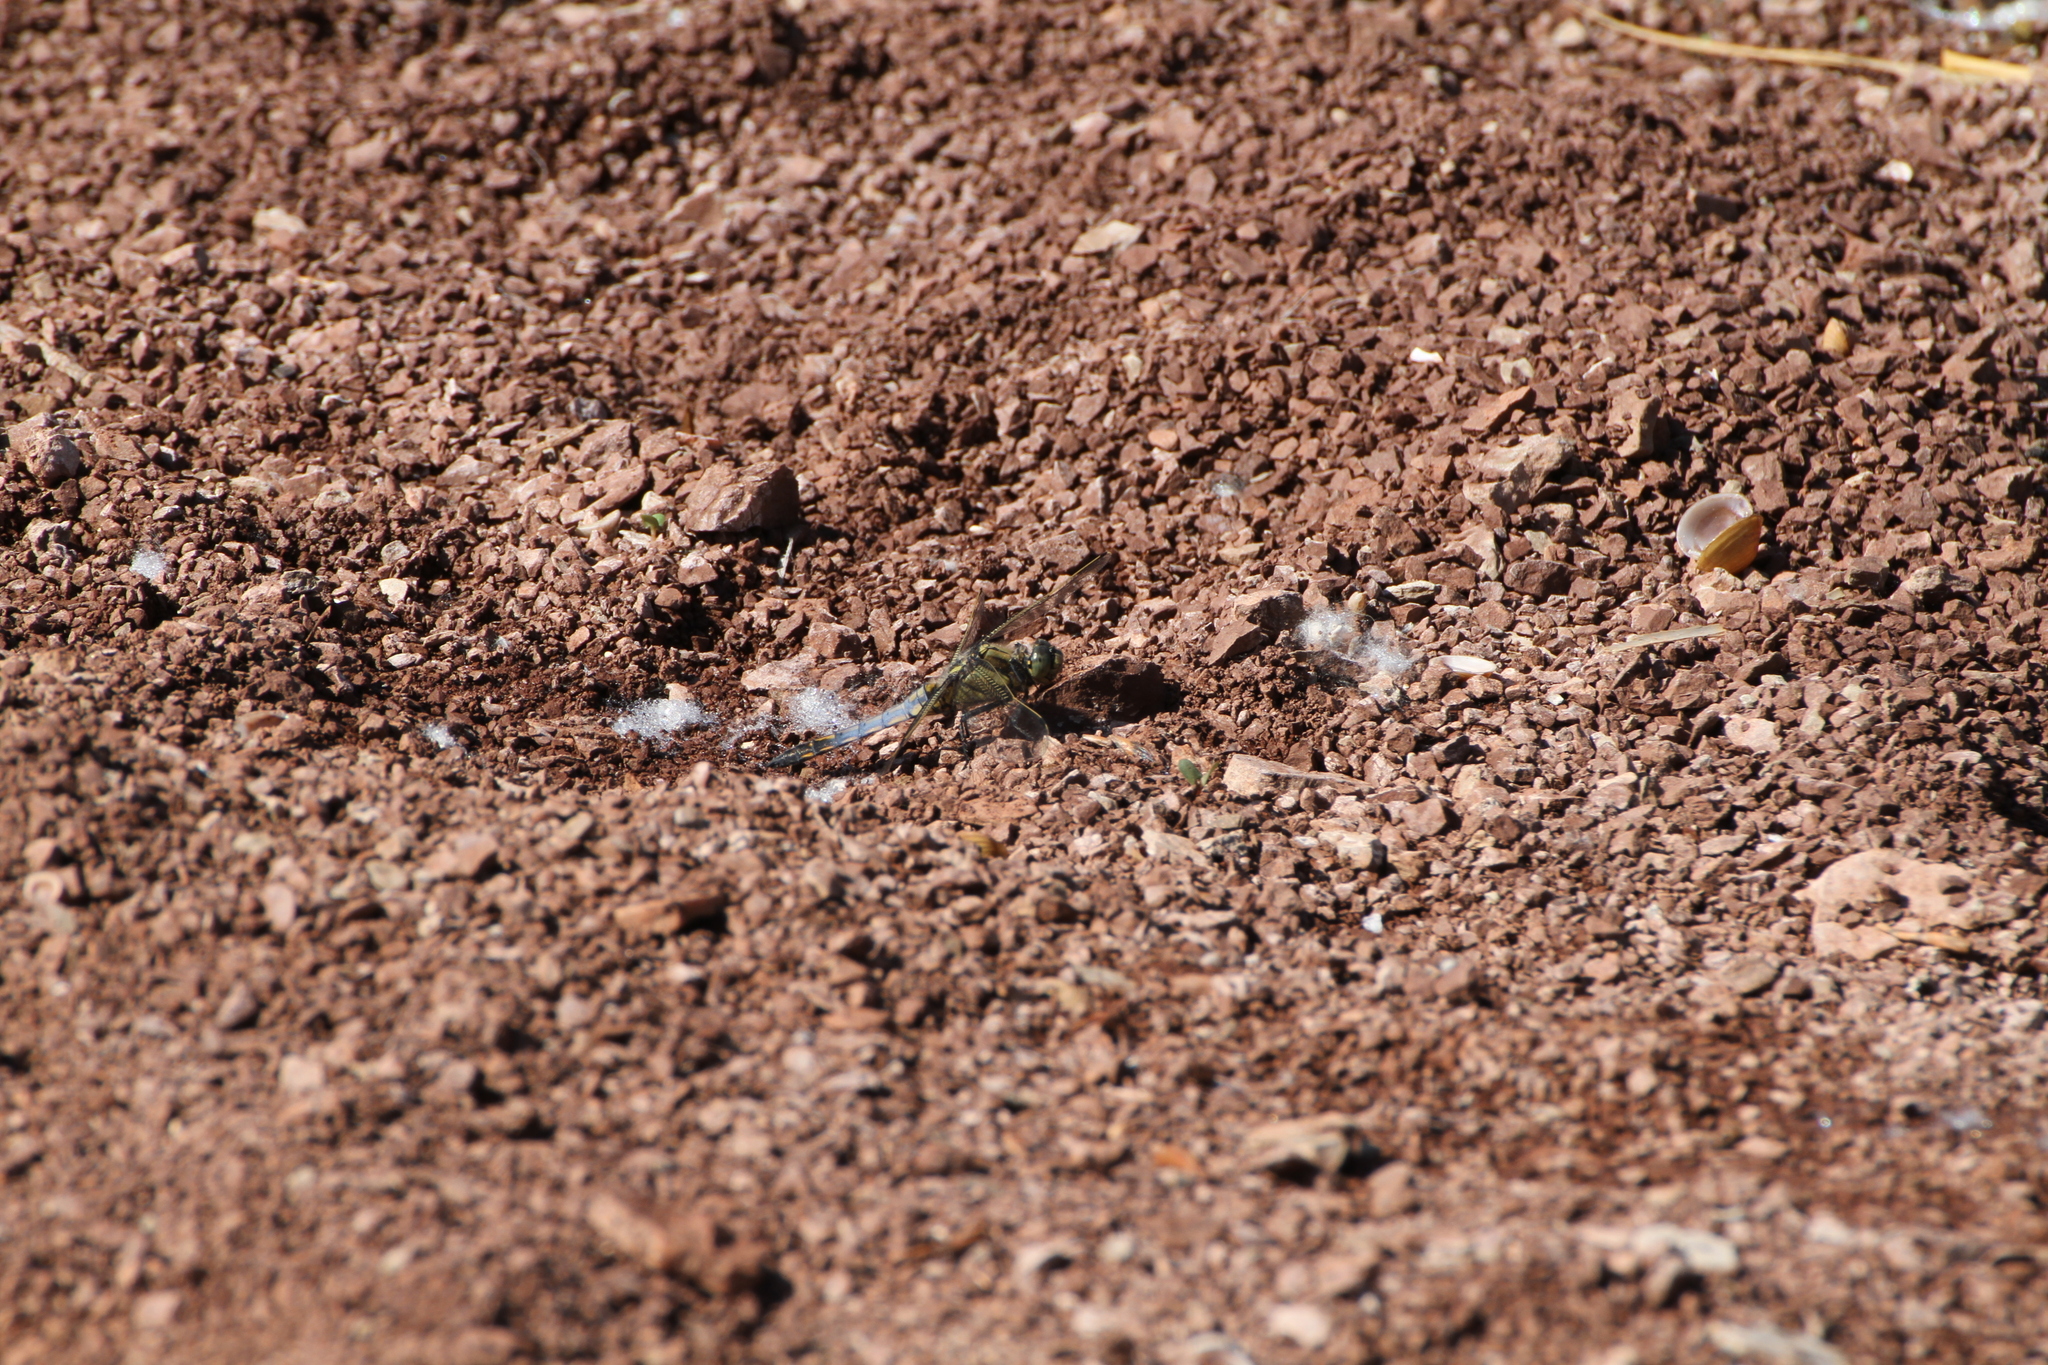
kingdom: Animalia
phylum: Arthropoda
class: Insecta
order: Odonata
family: Libellulidae
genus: Orthetrum
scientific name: Orthetrum cancellatum
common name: Black-tailed skimmer
